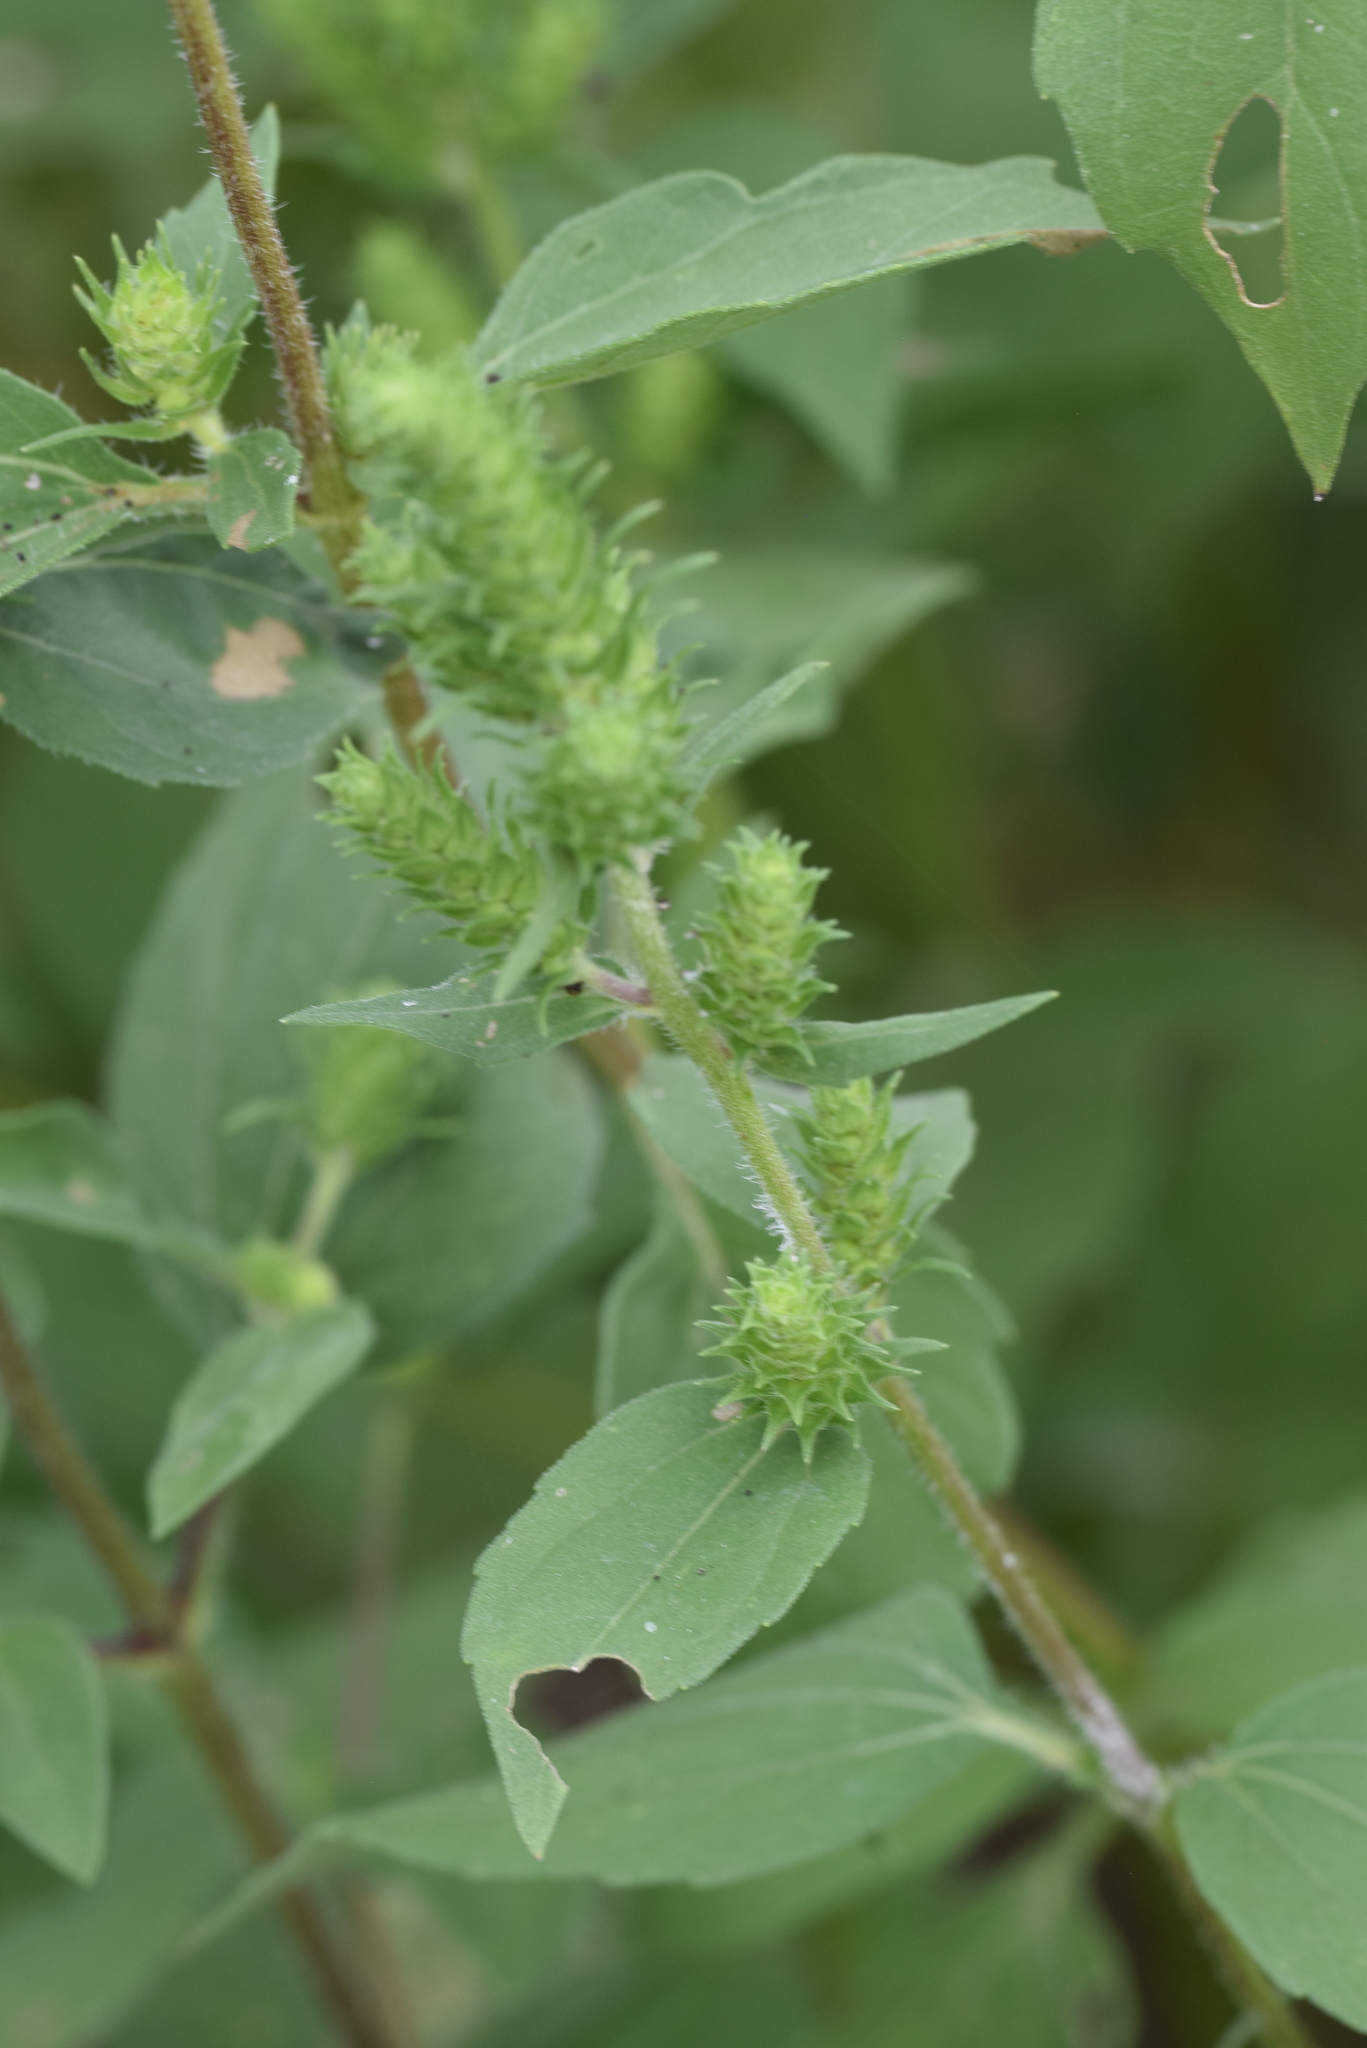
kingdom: Plantae
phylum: Tracheophyta
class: Magnoliopsida
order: Asterales
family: Asteraceae
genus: Iva
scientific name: Iva annua
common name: Marsh-elder
